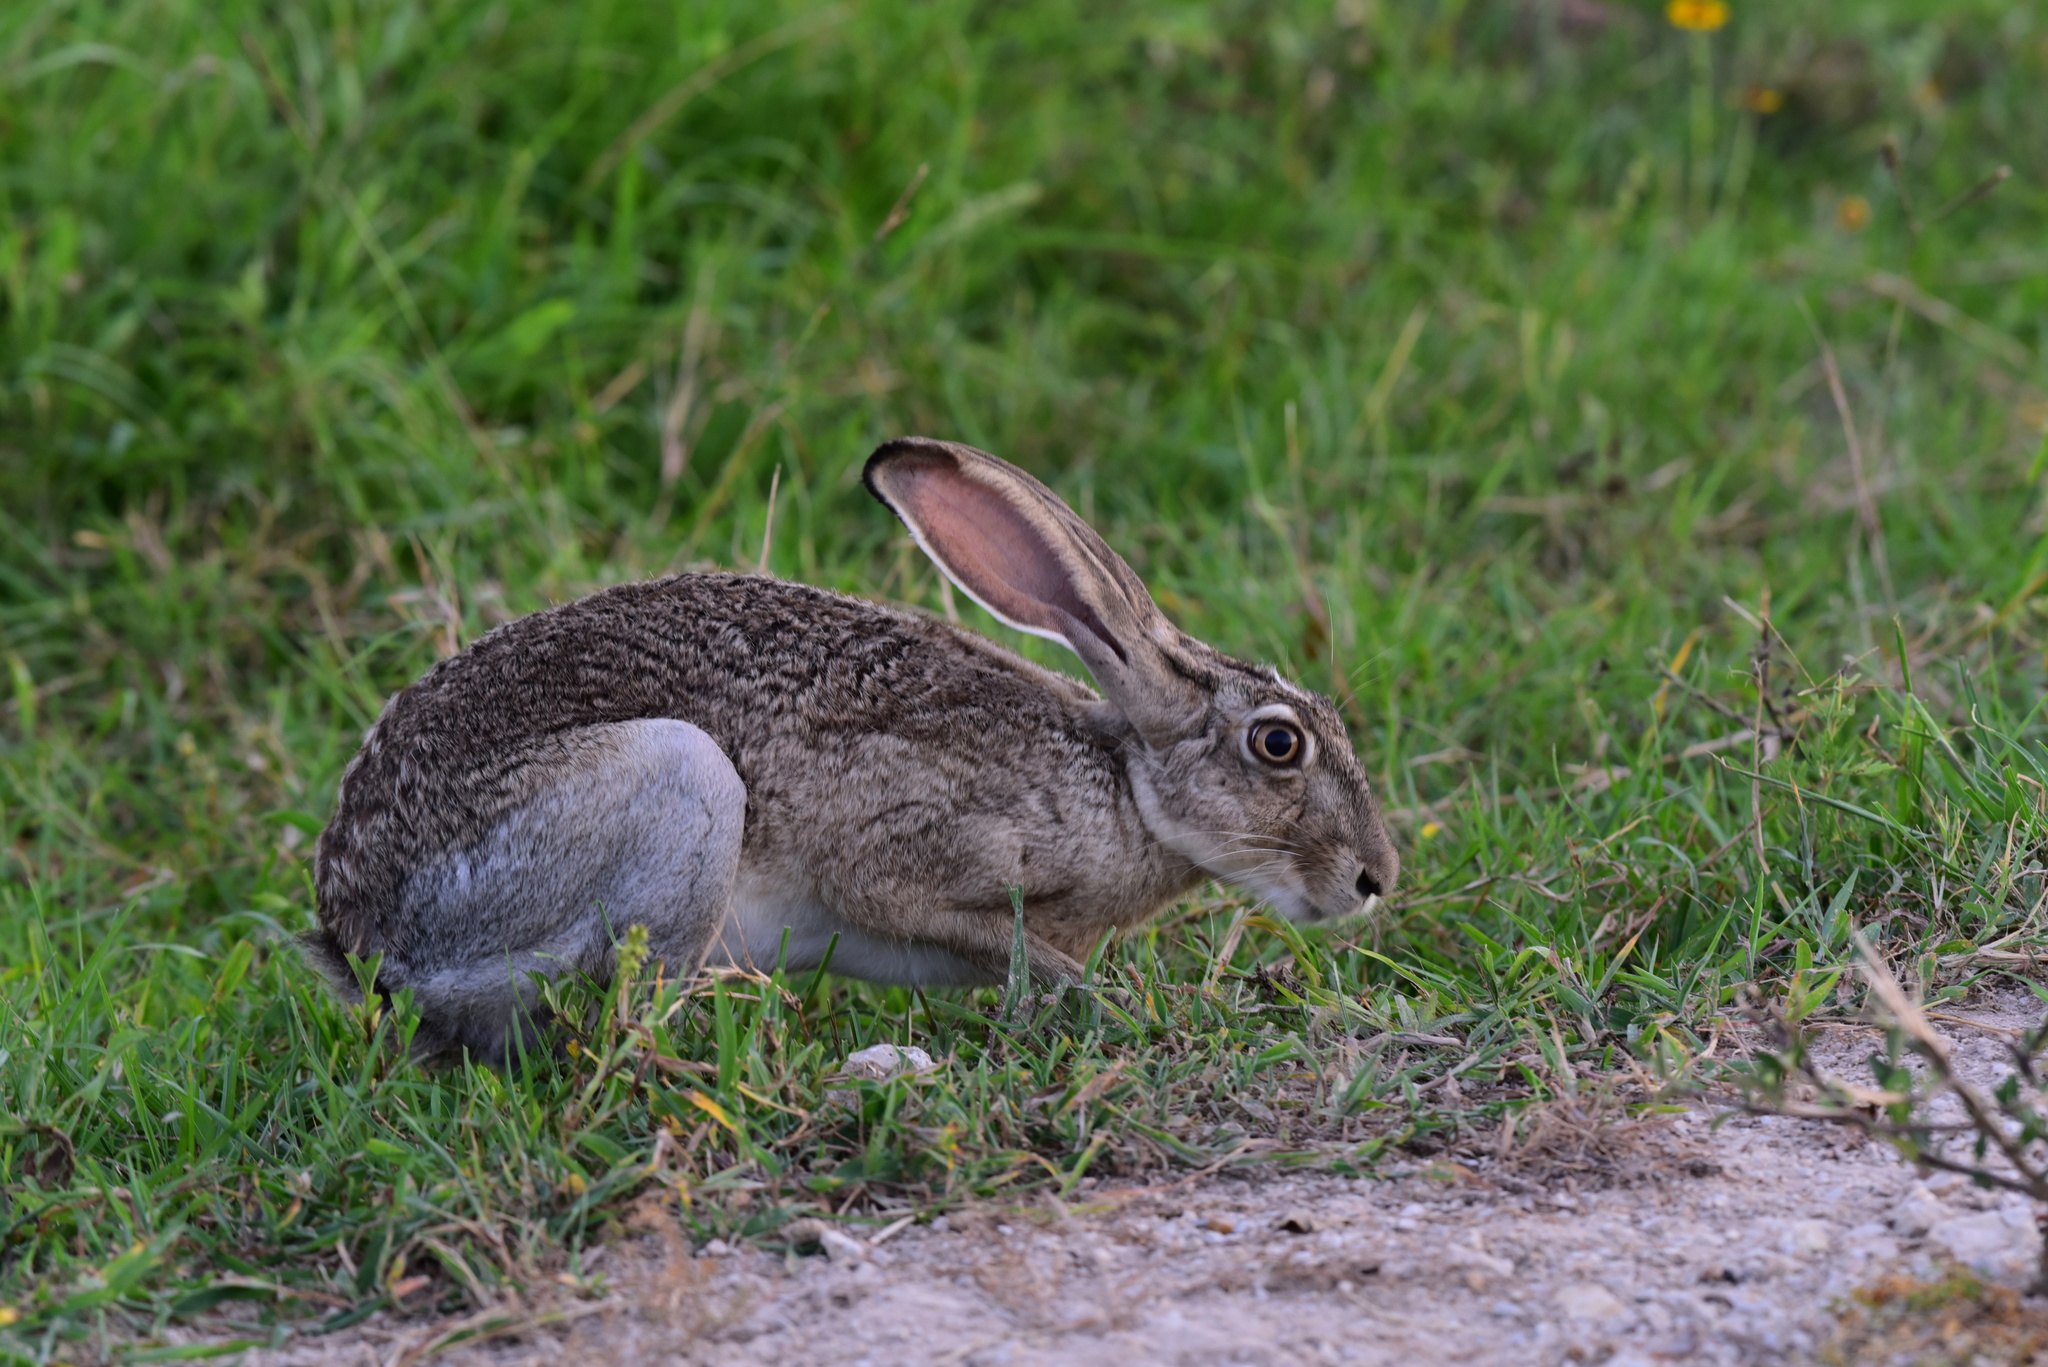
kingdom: Animalia
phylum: Chordata
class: Mammalia
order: Lagomorpha
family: Leporidae
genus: Lepus
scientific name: Lepus californicus
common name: Black-tailed jackrabbit
